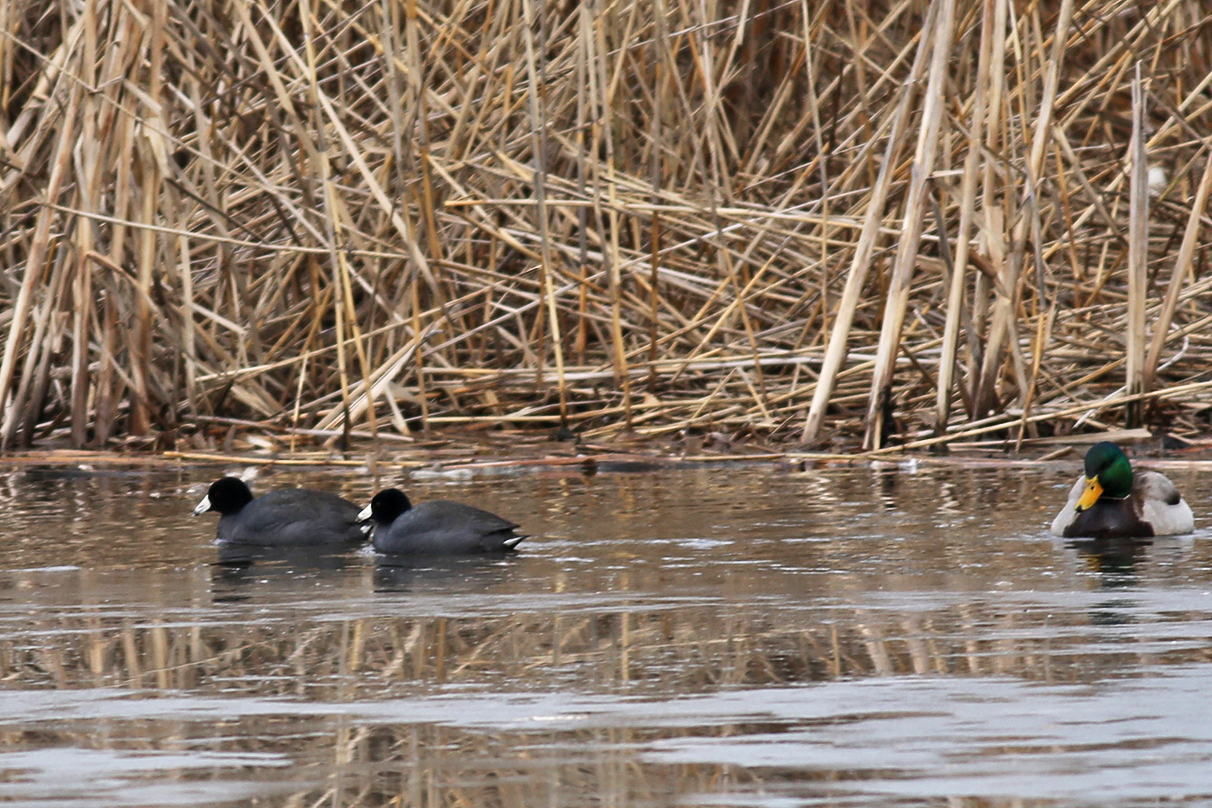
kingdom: Animalia
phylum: Chordata
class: Aves
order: Gruiformes
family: Rallidae
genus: Fulica
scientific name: Fulica americana
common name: American coot
